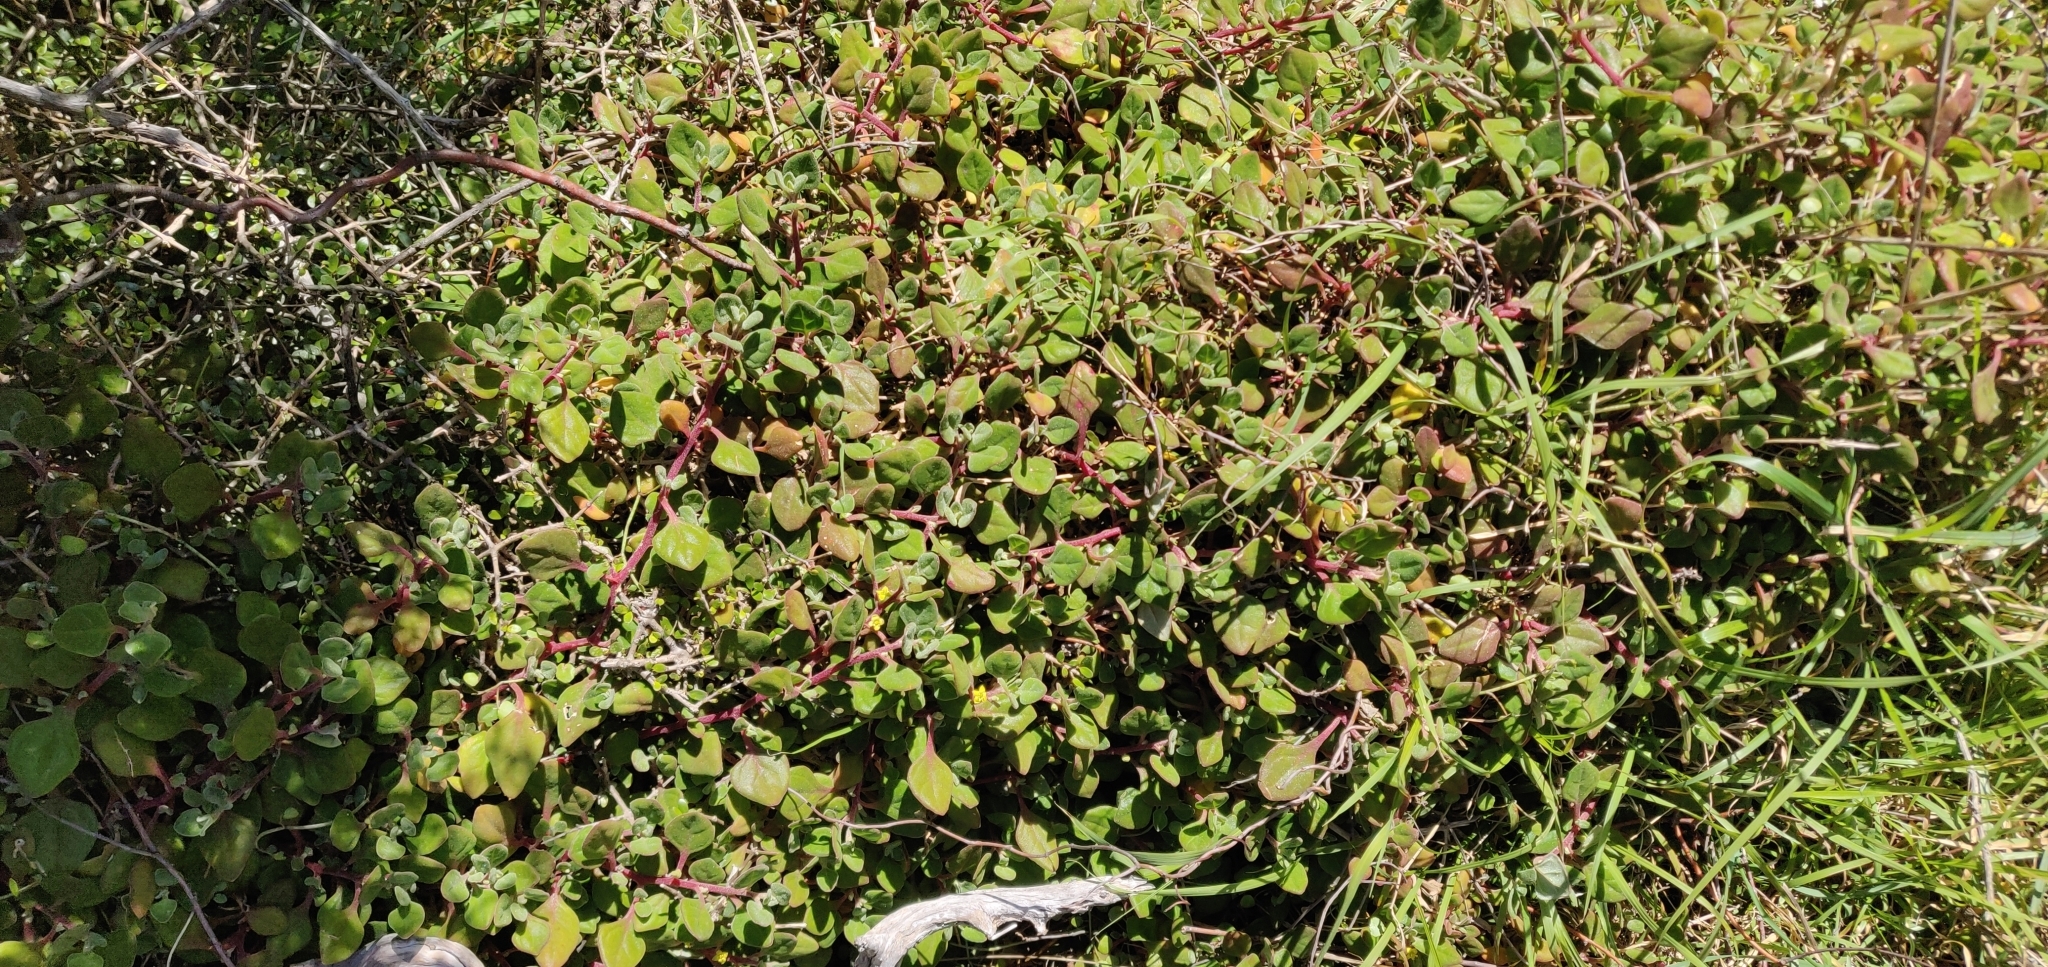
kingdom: Plantae
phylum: Tracheophyta
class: Magnoliopsida
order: Caryophyllales
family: Aizoaceae
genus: Tetragonia
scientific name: Tetragonia implexicoma
